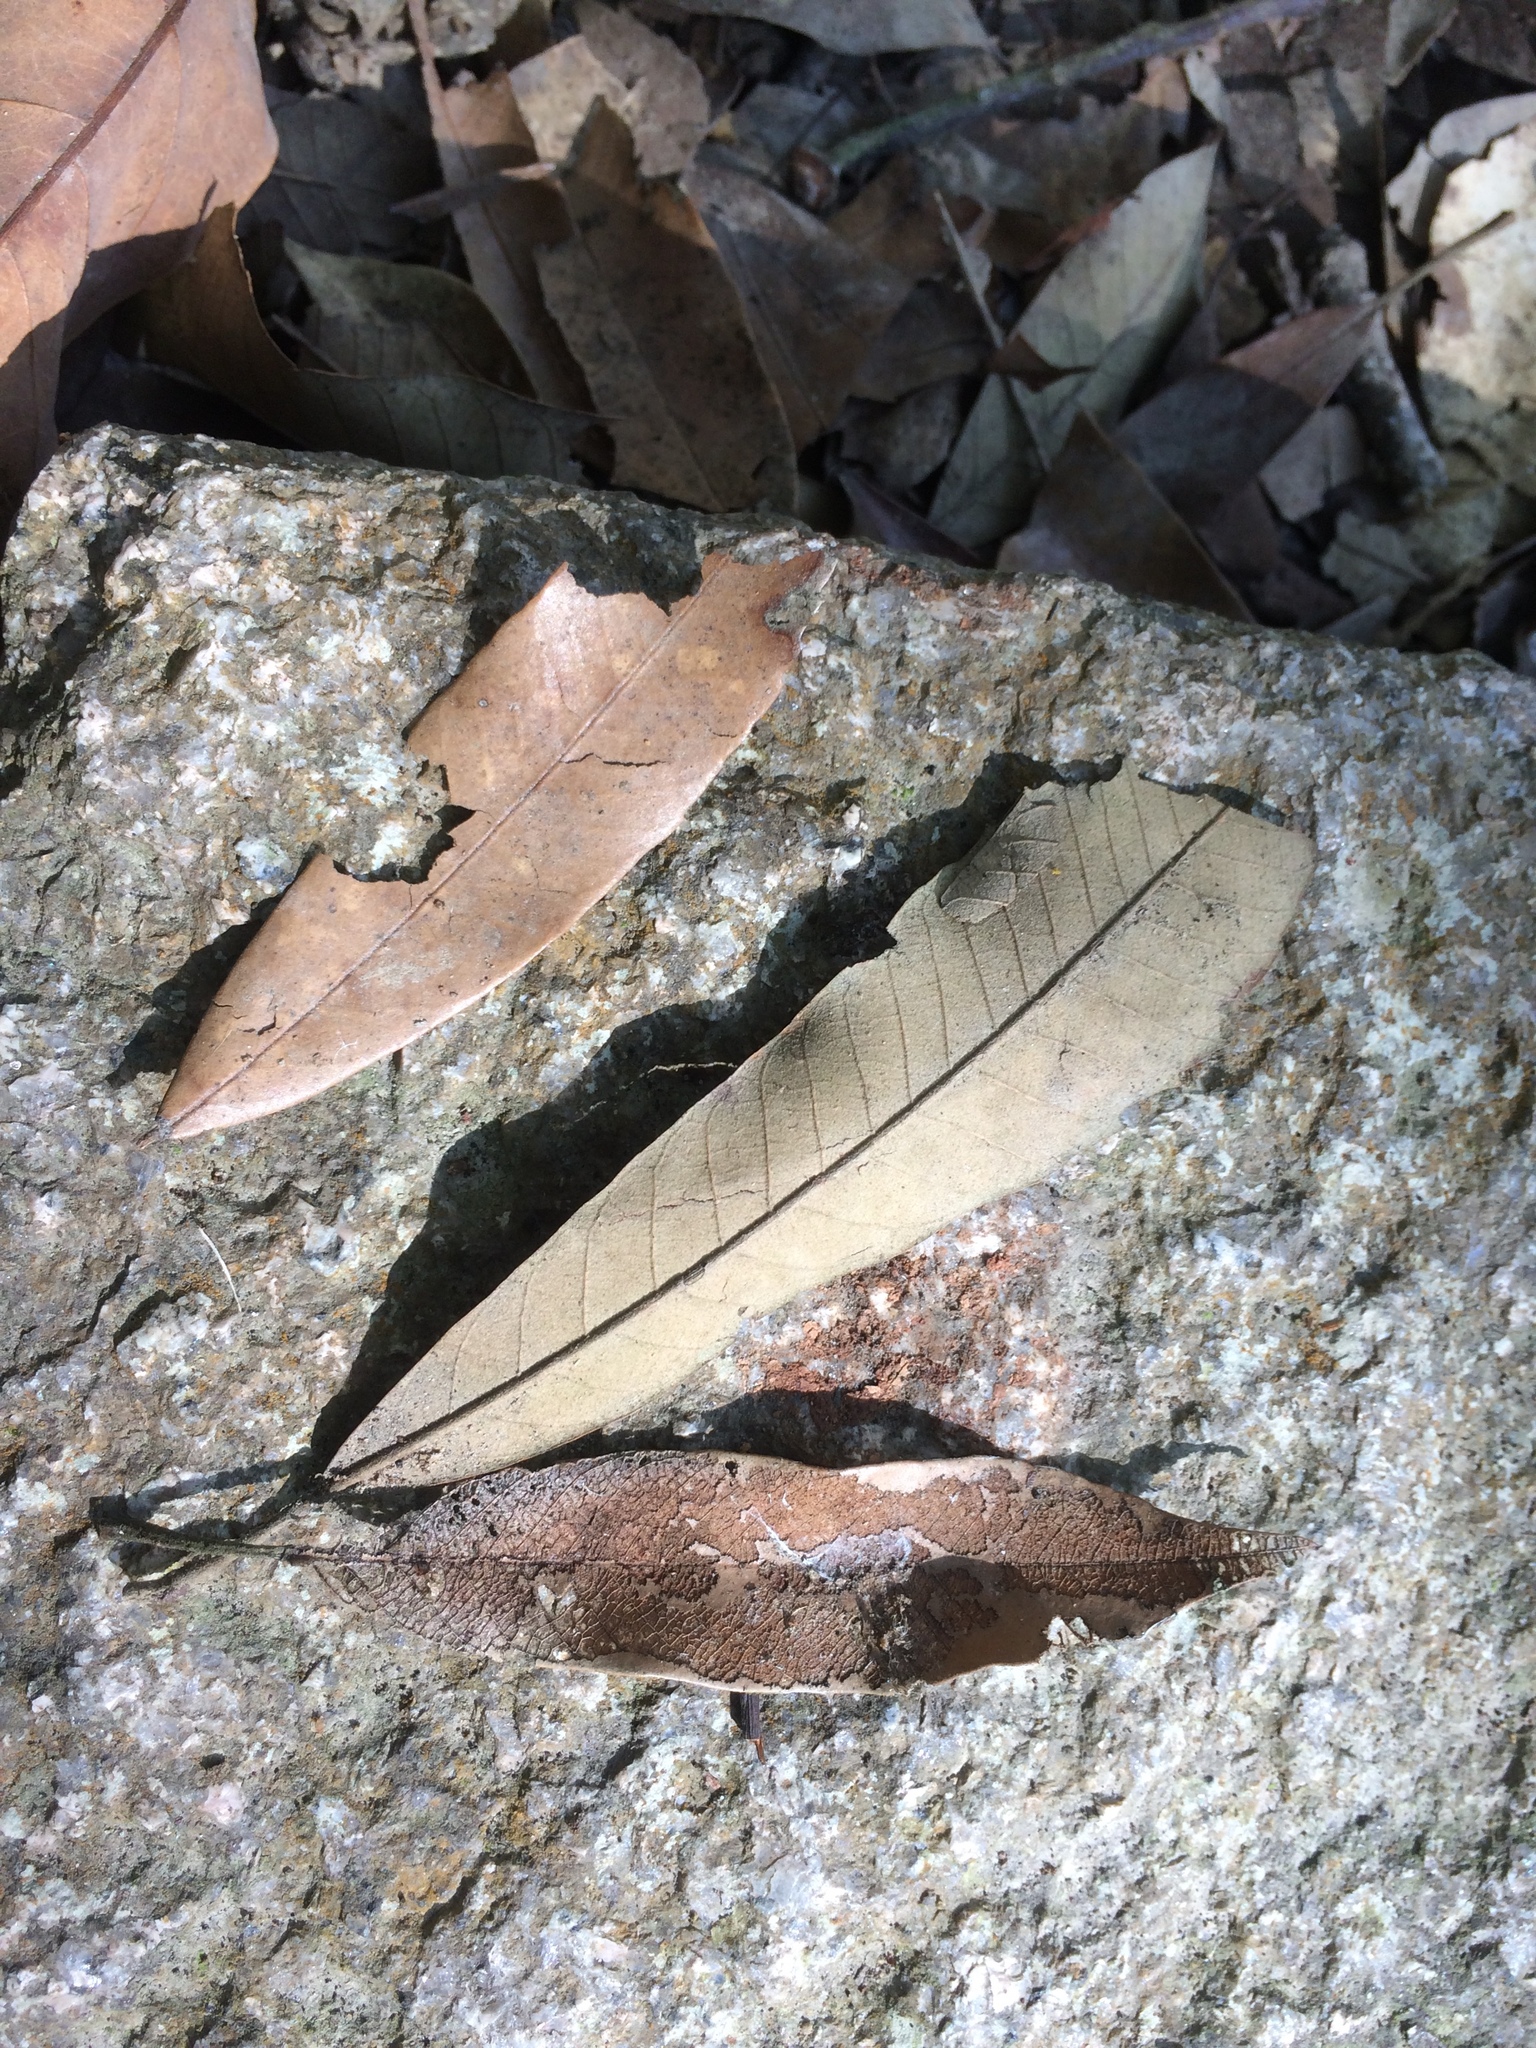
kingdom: Plantae
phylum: Tracheophyta
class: Magnoliopsida
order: Fagales
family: Fagaceae
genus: Quercus
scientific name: Quercus gilva
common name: Redbark oak
